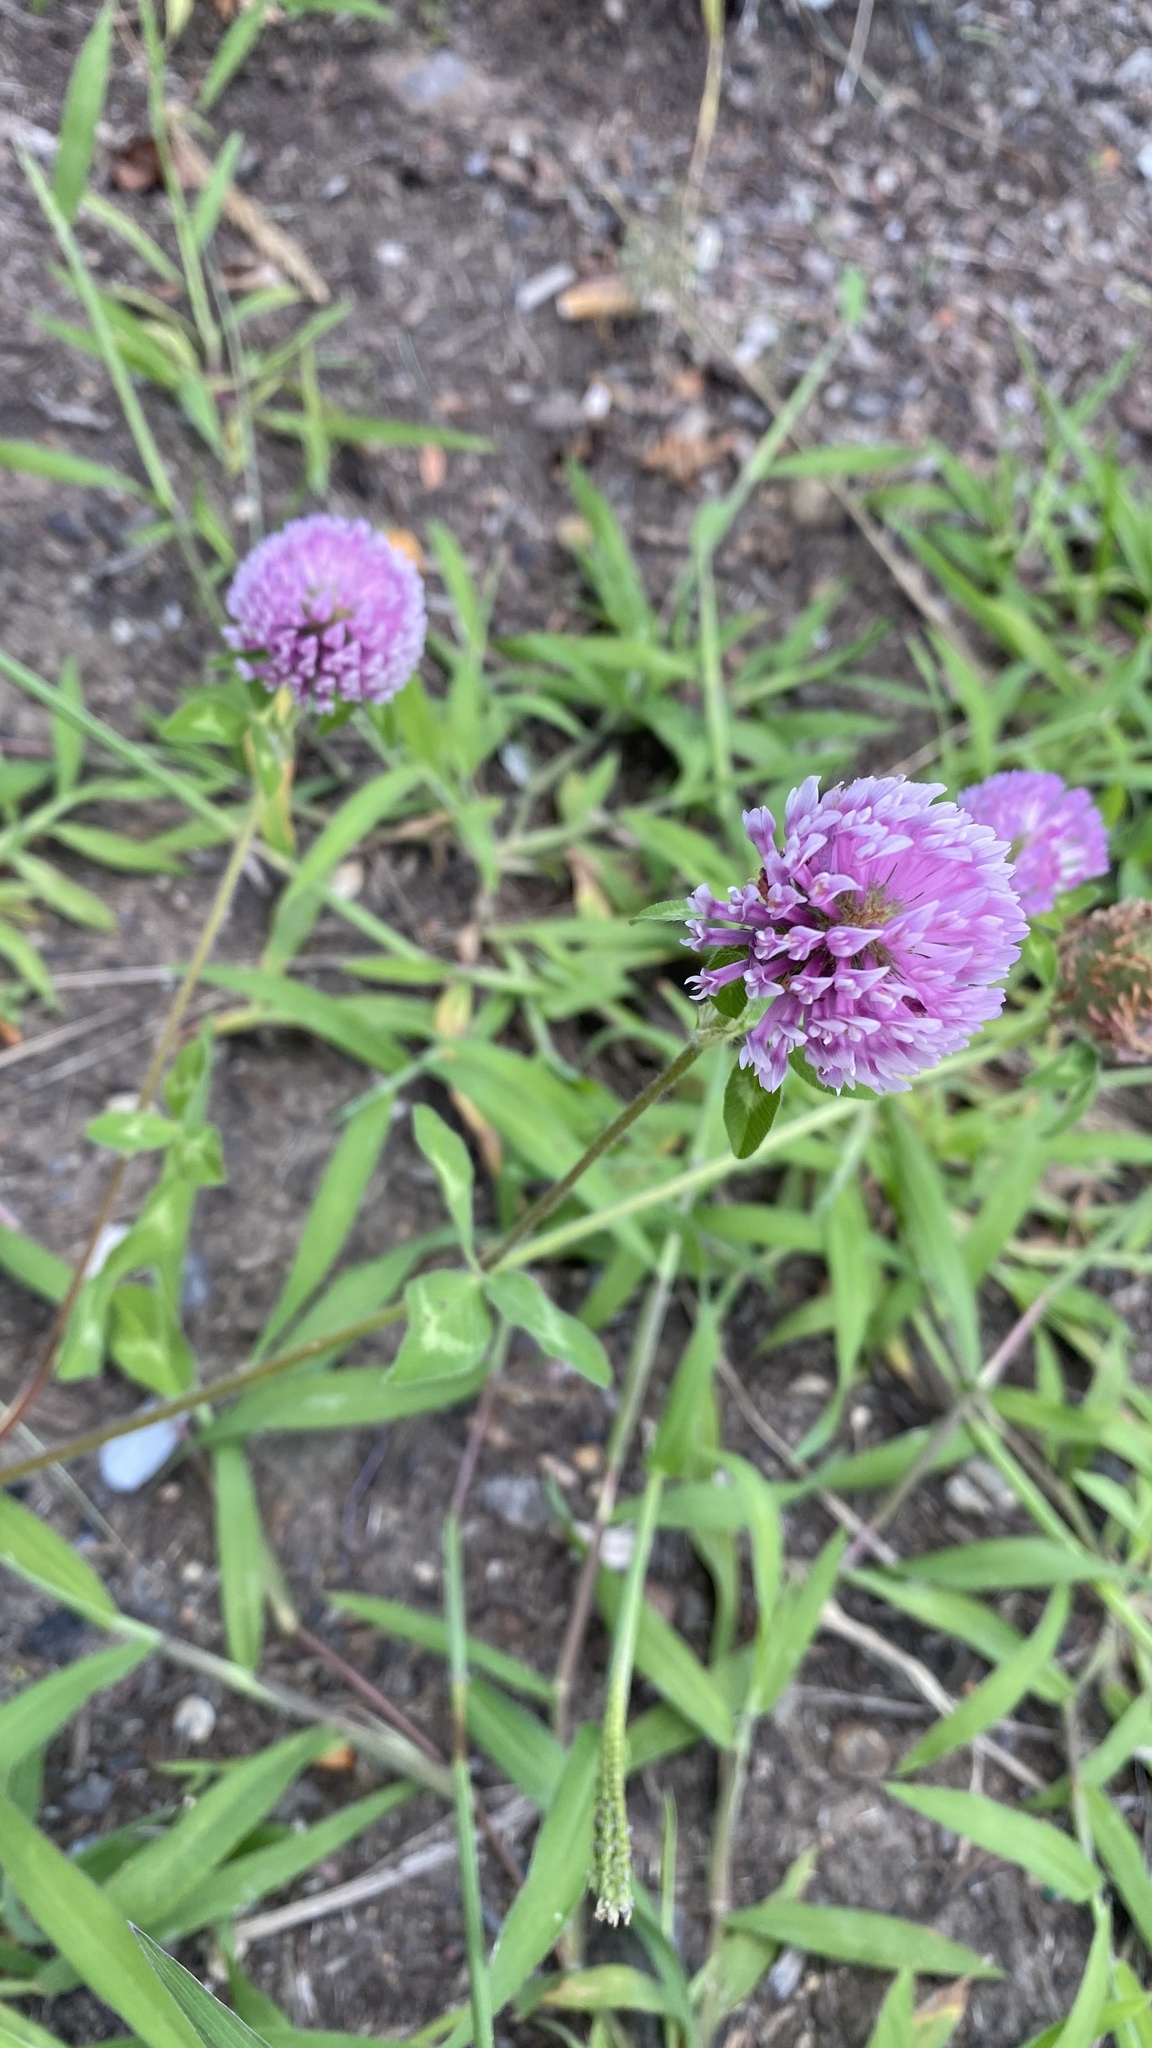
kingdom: Plantae
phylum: Tracheophyta
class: Magnoliopsida
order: Fabales
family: Fabaceae
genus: Trifolium
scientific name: Trifolium pratense
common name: Red clover
